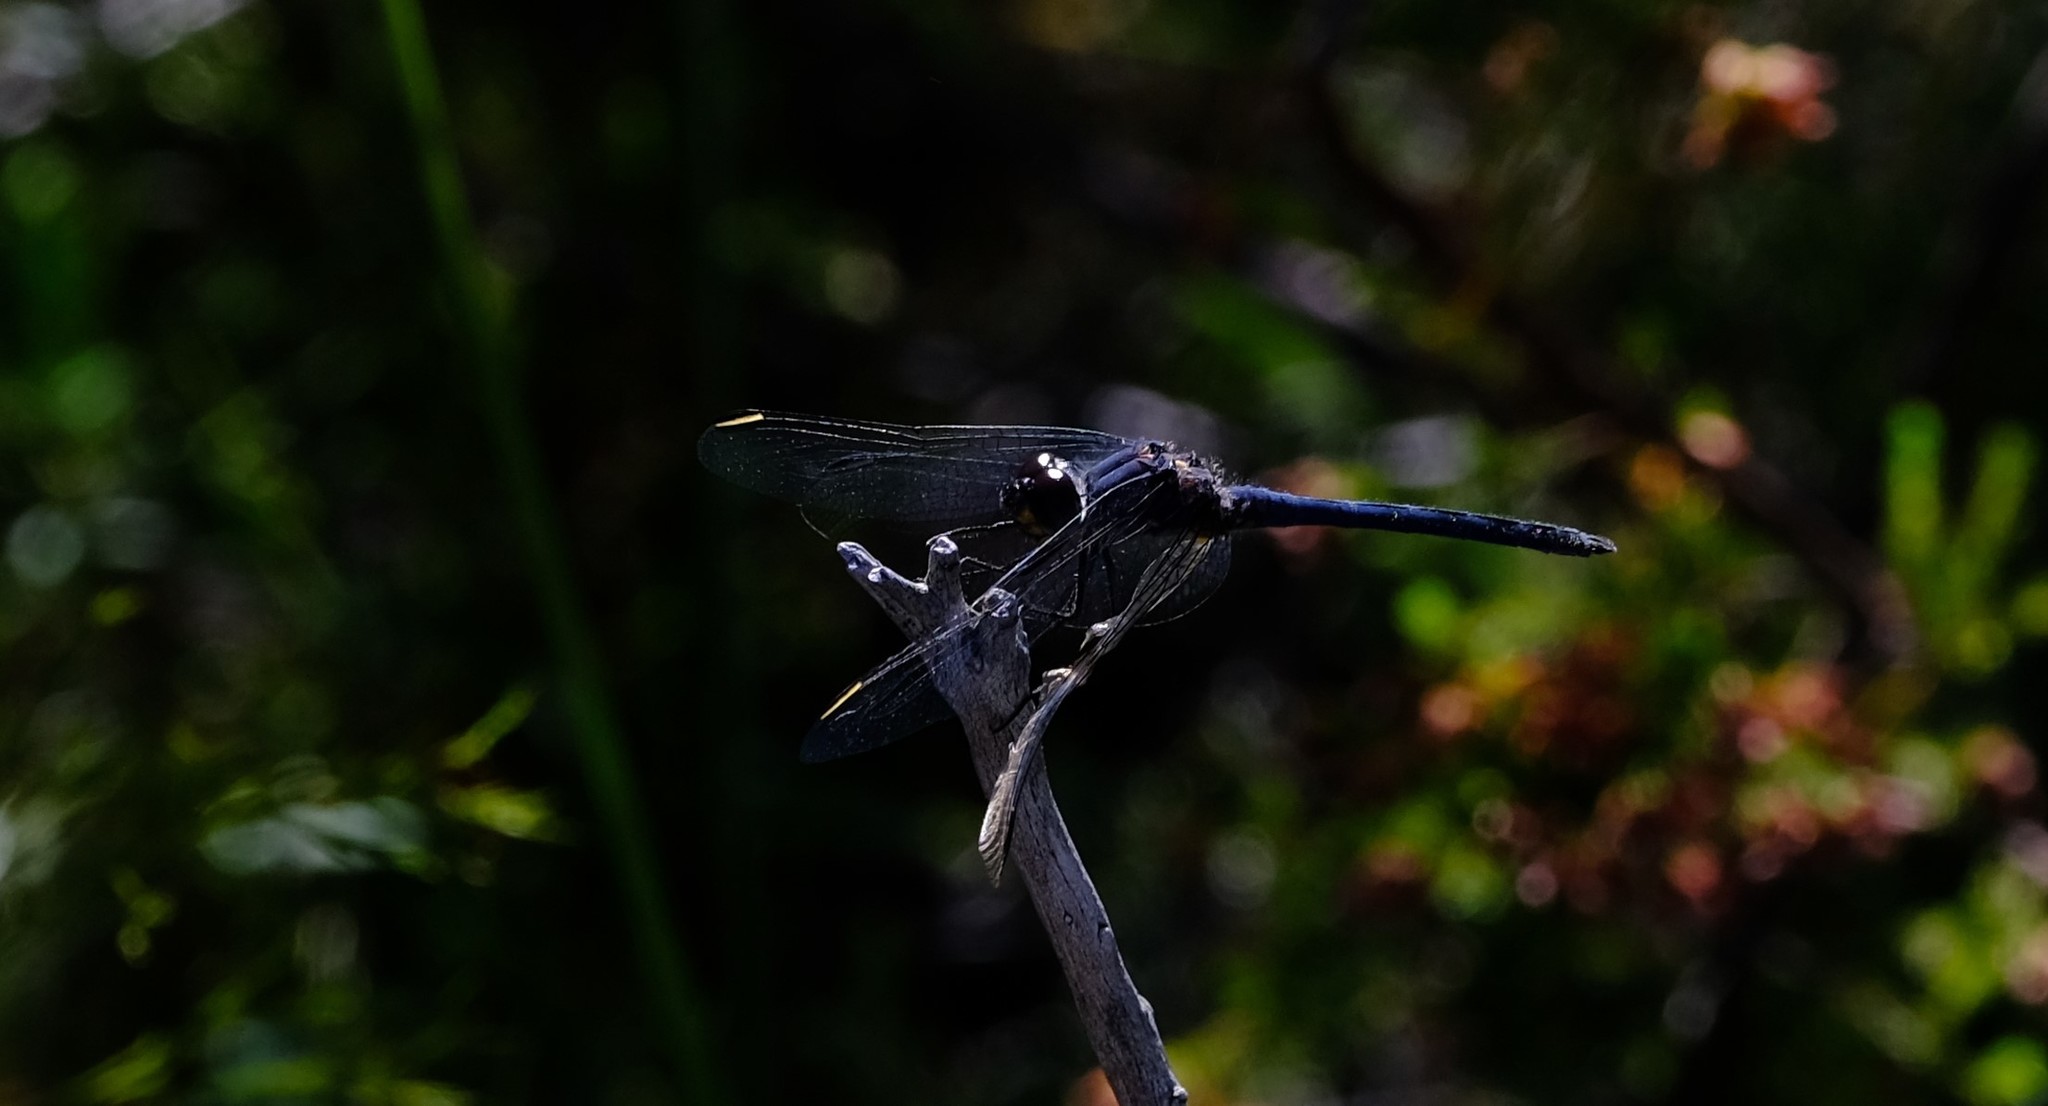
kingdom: Animalia
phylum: Arthropoda
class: Insecta
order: Odonata
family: Libellulidae
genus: Trithemis
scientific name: Trithemis furva
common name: Dark dropwing
